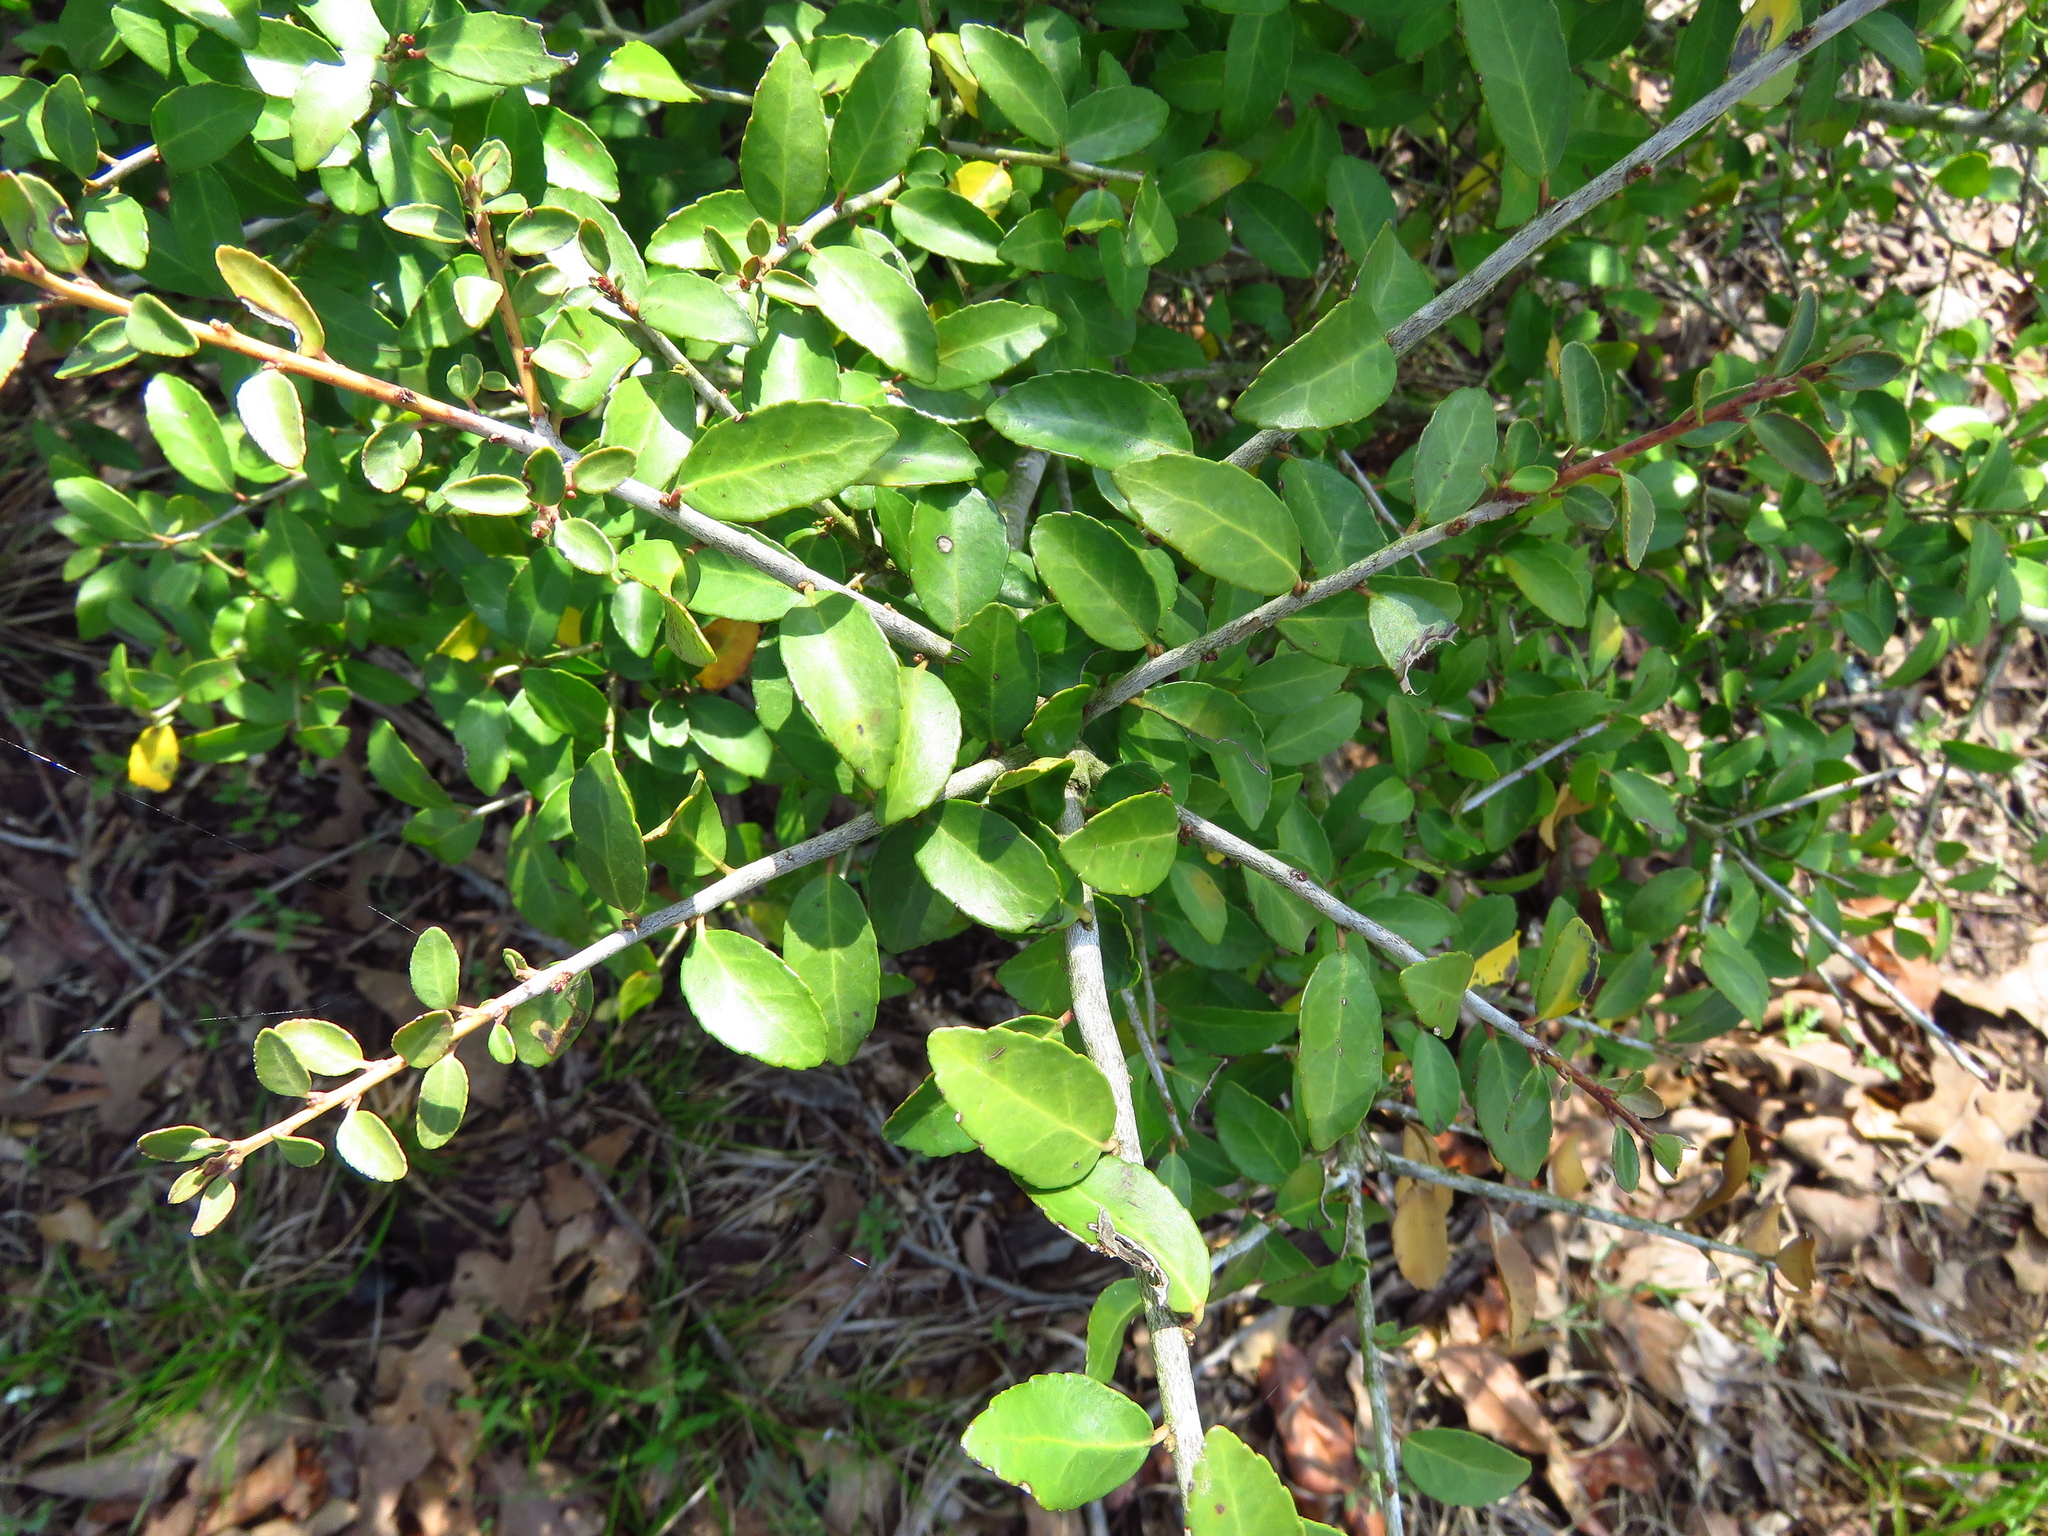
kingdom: Plantae
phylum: Tracheophyta
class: Magnoliopsida
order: Aquifoliales
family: Aquifoliaceae
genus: Ilex
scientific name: Ilex vomitoria
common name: Yaupon holly
